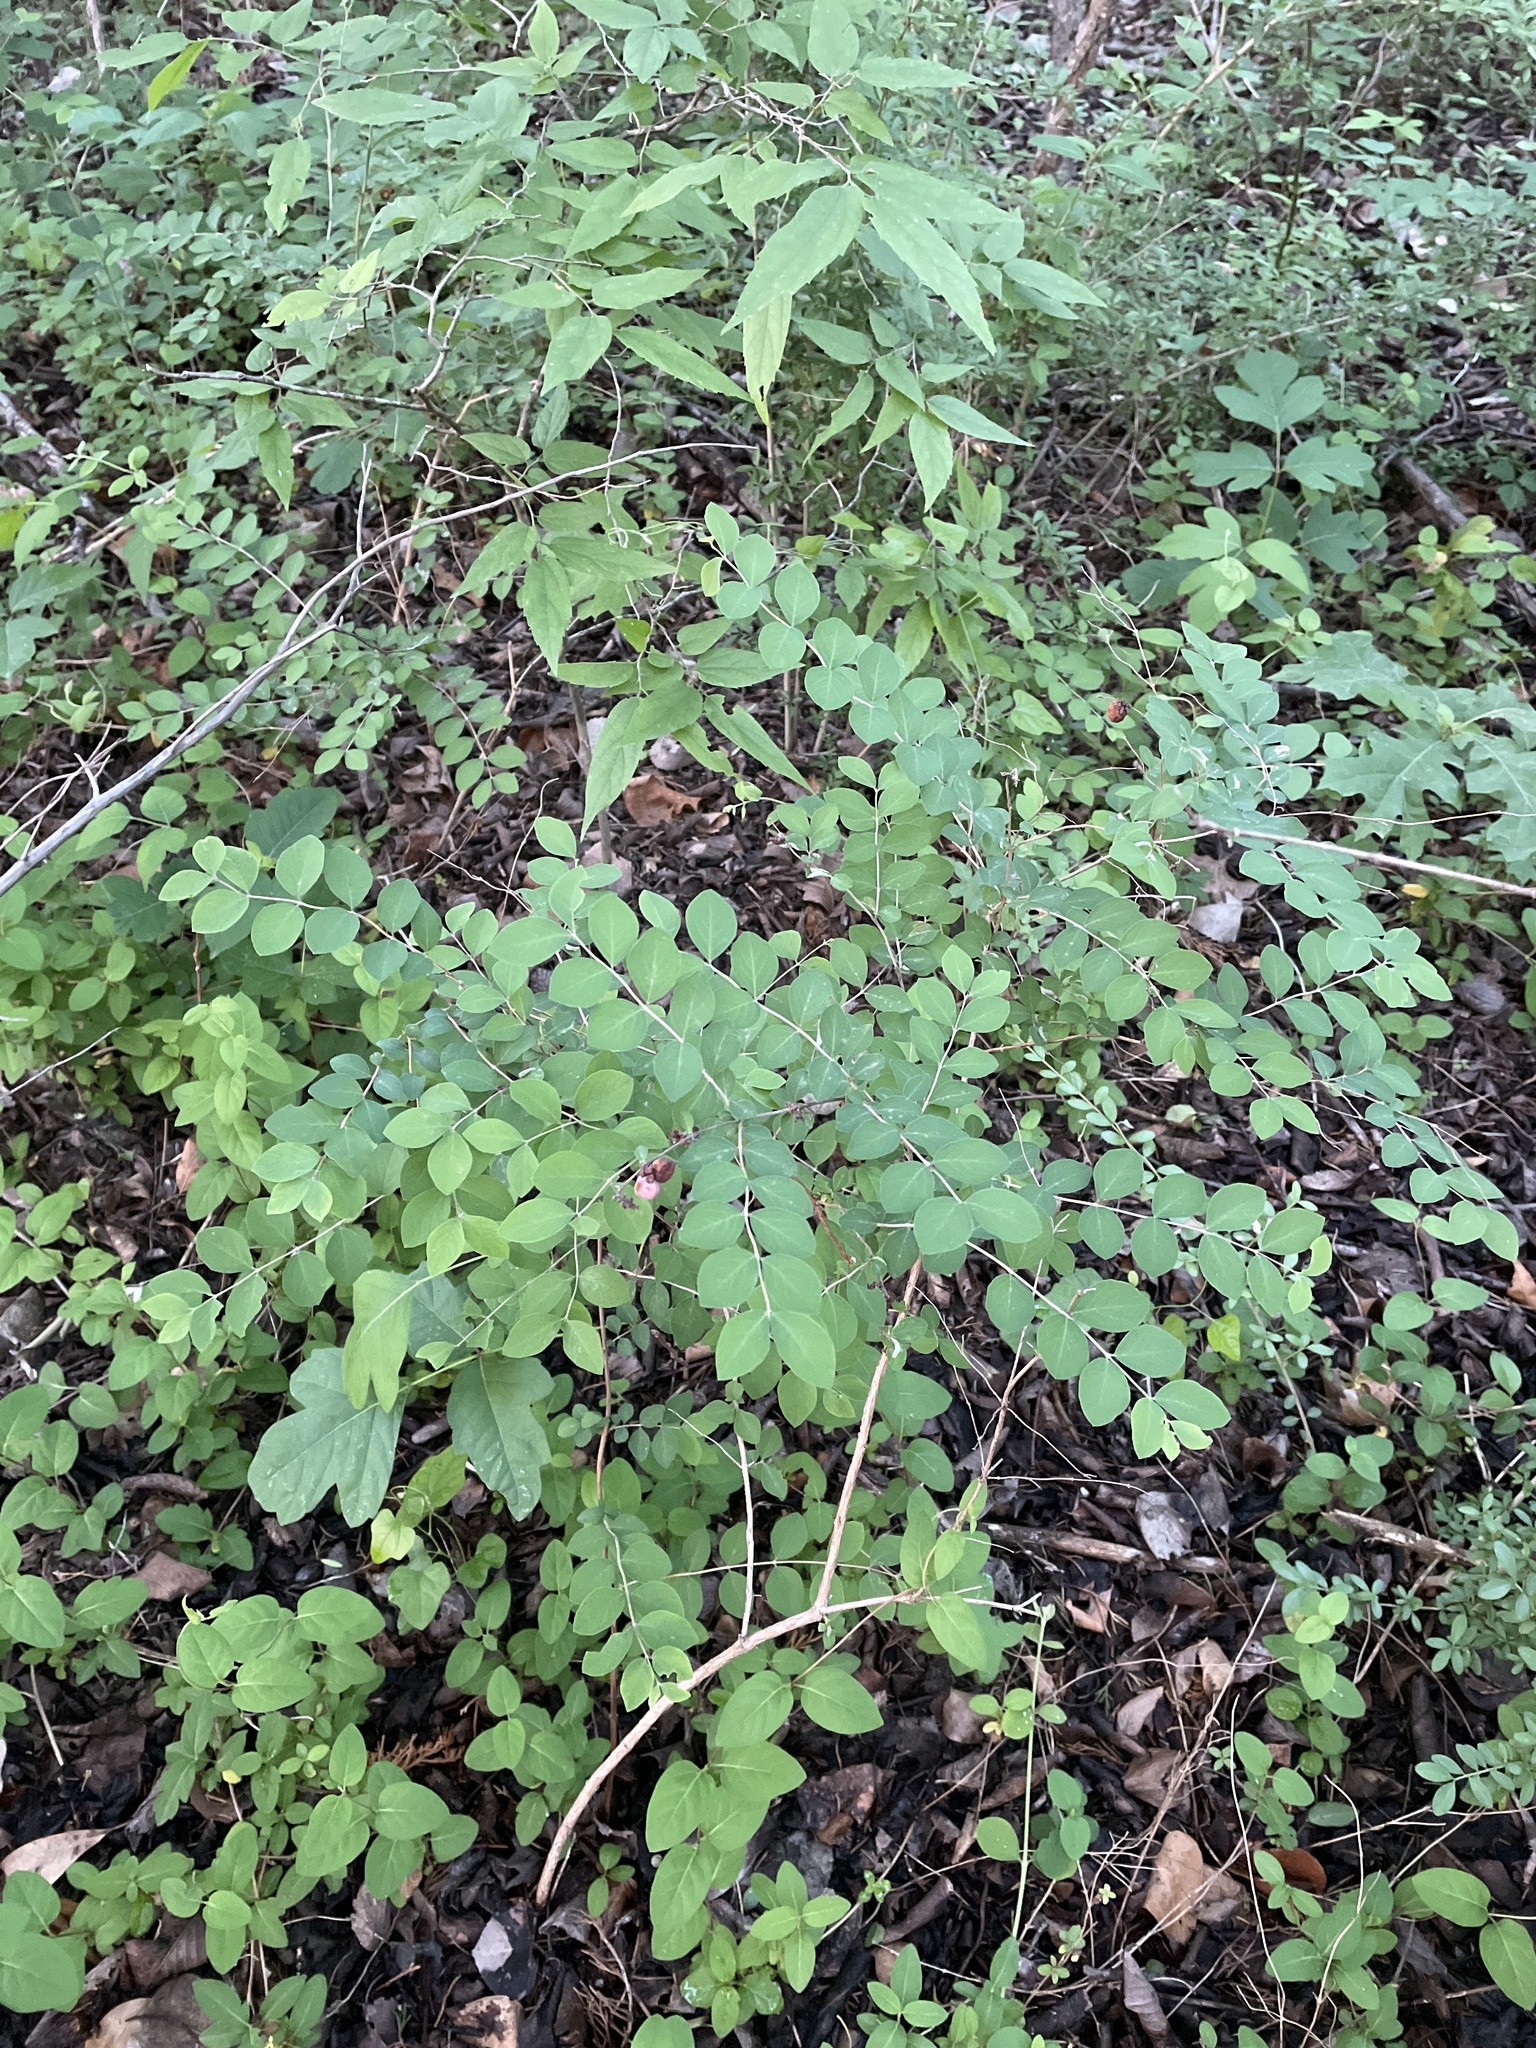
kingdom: Plantae
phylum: Tracheophyta
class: Magnoliopsida
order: Dipsacales
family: Caprifoliaceae
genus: Symphoricarpos
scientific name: Symphoricarpos orbiculatus
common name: Coralberry
